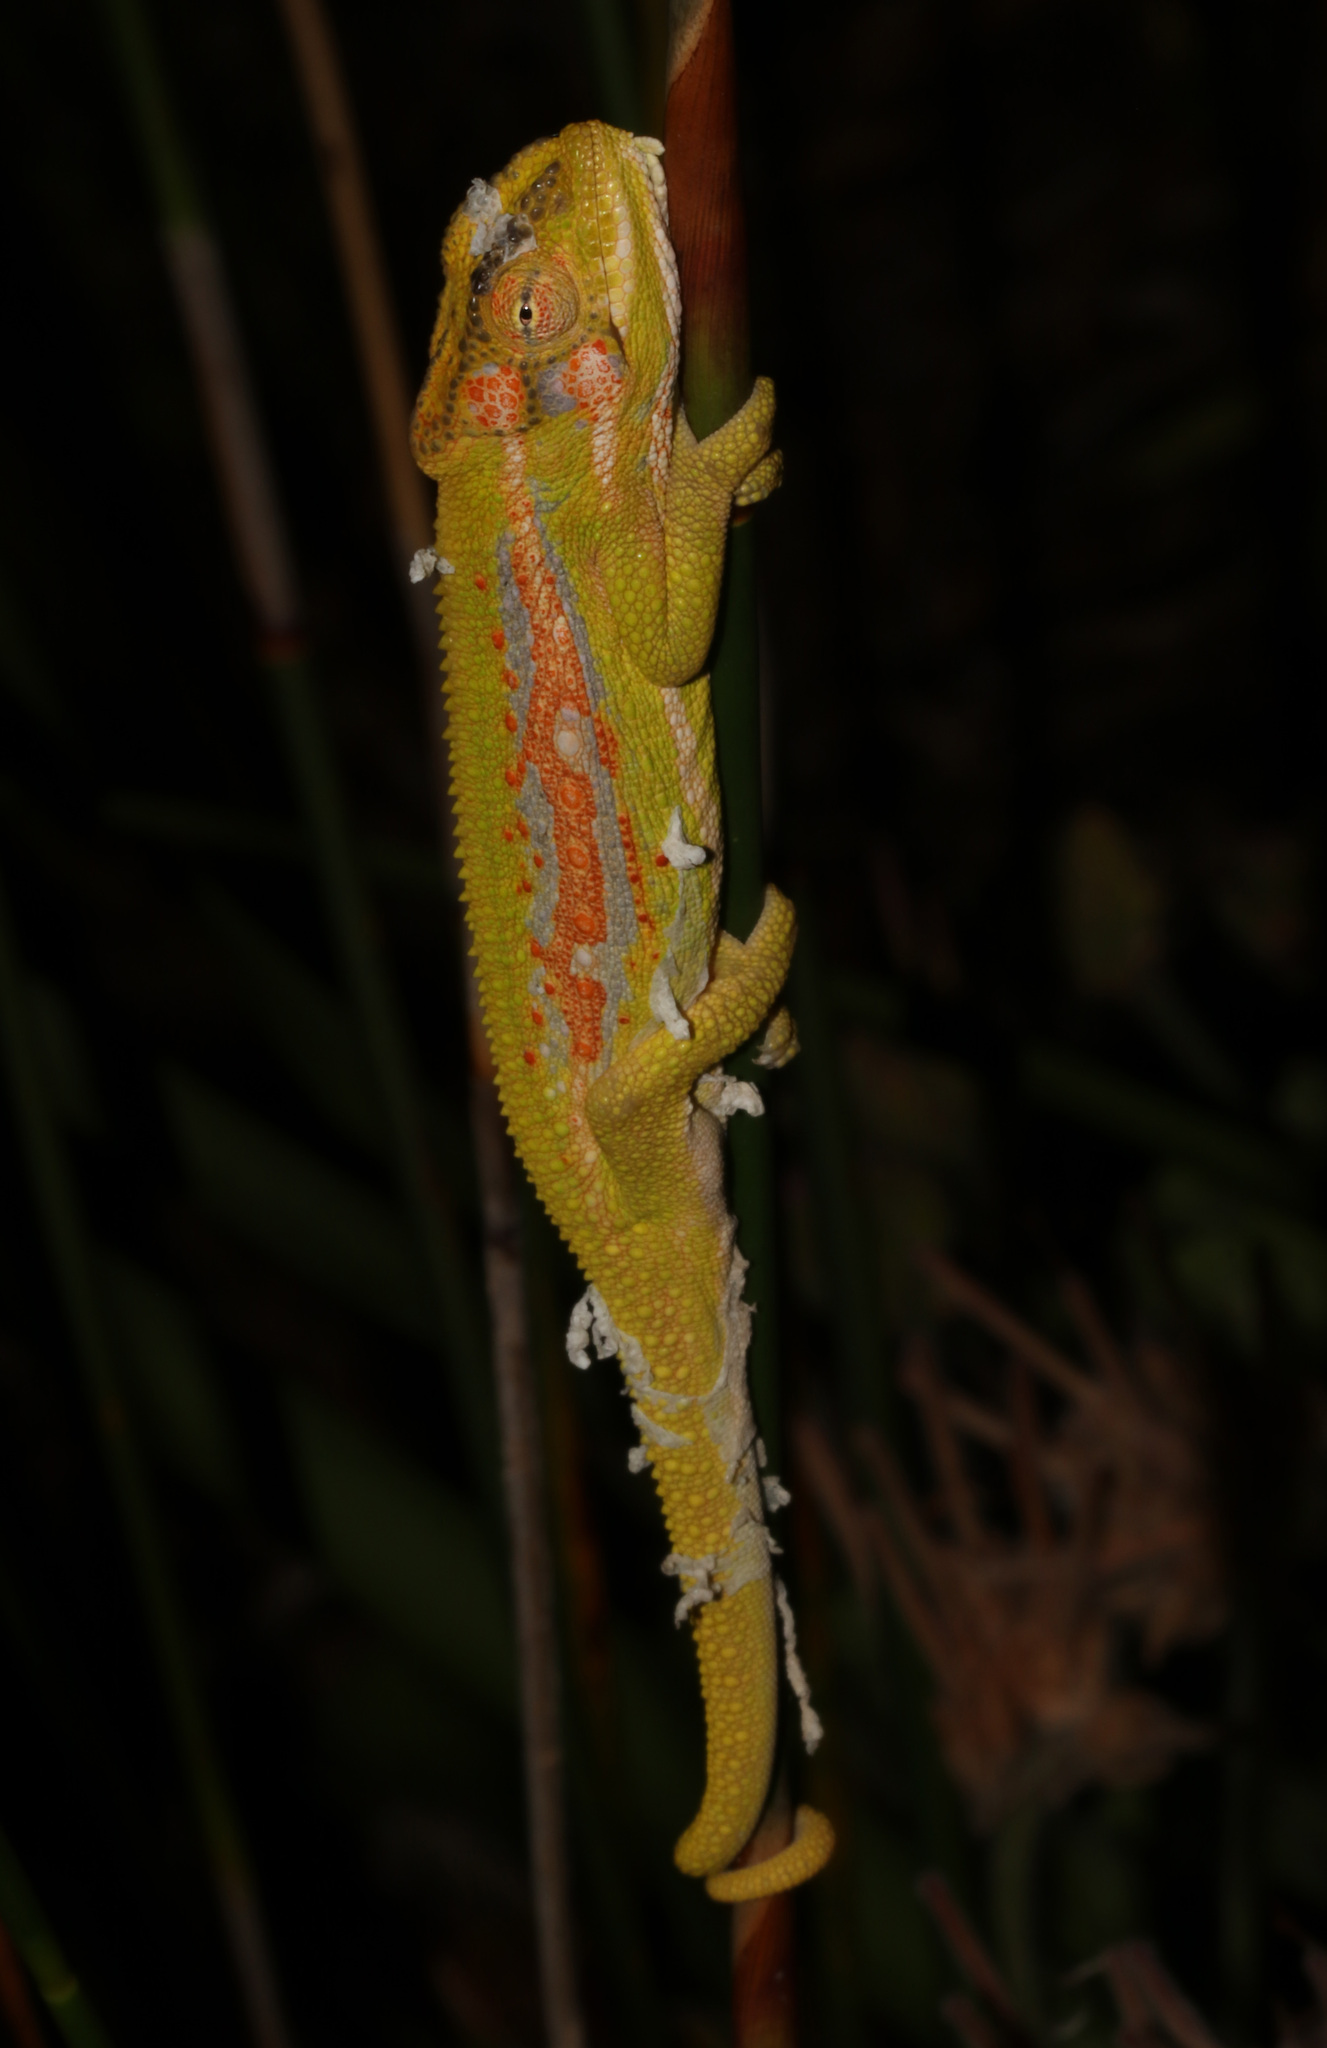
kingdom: Animalia
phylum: Chordata
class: Squamata
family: Chamaeleonidae
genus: Bradypodion
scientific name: Bradypodion pumilum
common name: Cape dwarf chameleon
